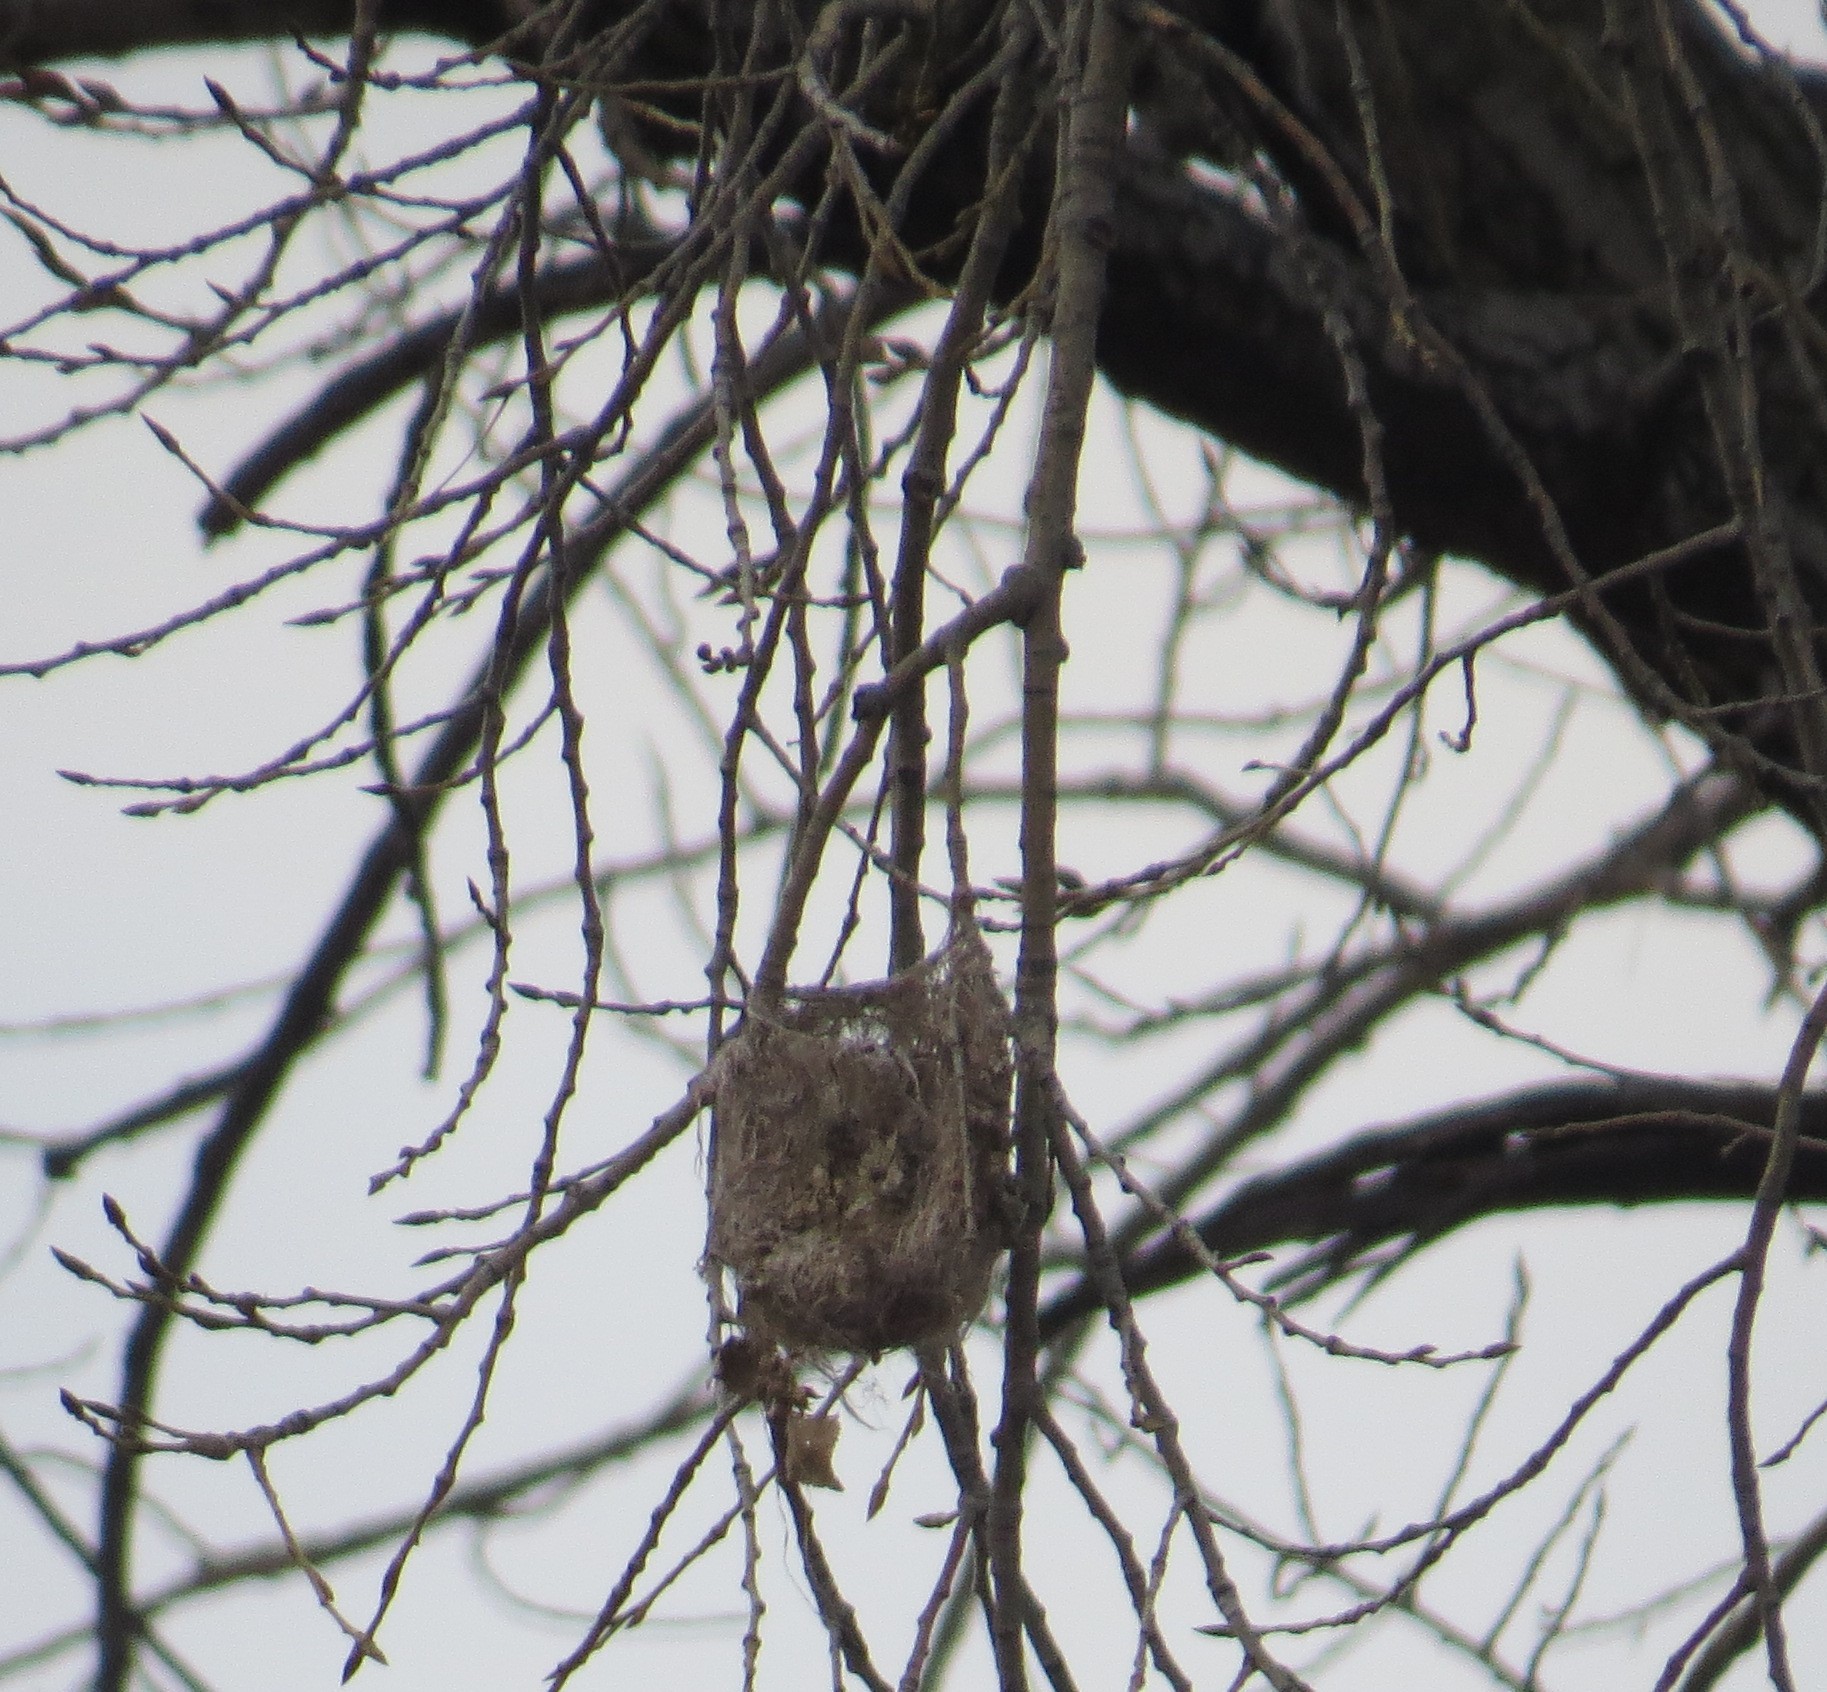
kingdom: Animalia
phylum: Chordata
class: Aves
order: Passeriformes
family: Icteridae
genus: Icterus
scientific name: Icterus galbula
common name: Baltimore oriole
